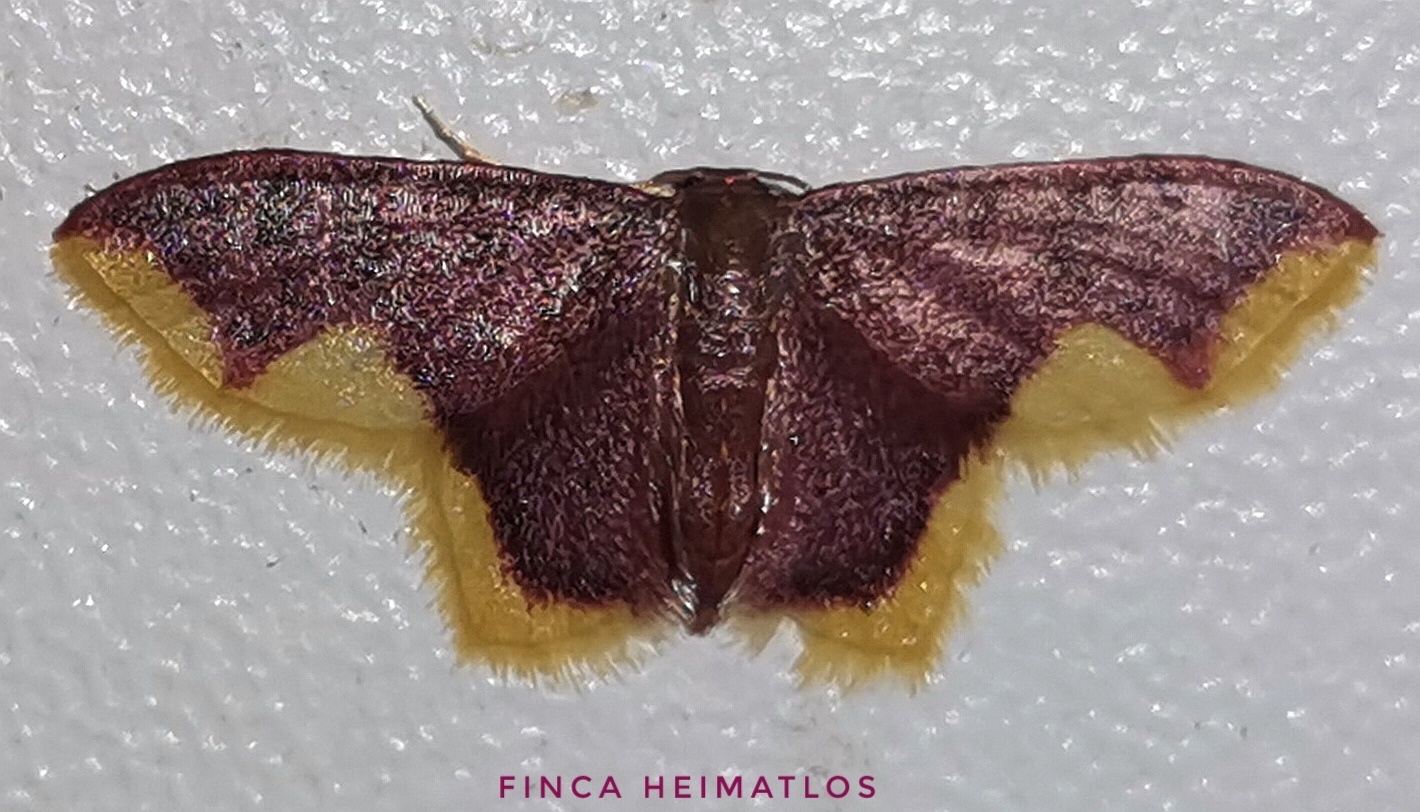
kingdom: Animalia
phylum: Arthropoda
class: Insecta
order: Lepidoptera
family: Geometridae
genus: Tricentrogyna
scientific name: Tricentrogyna violescens
